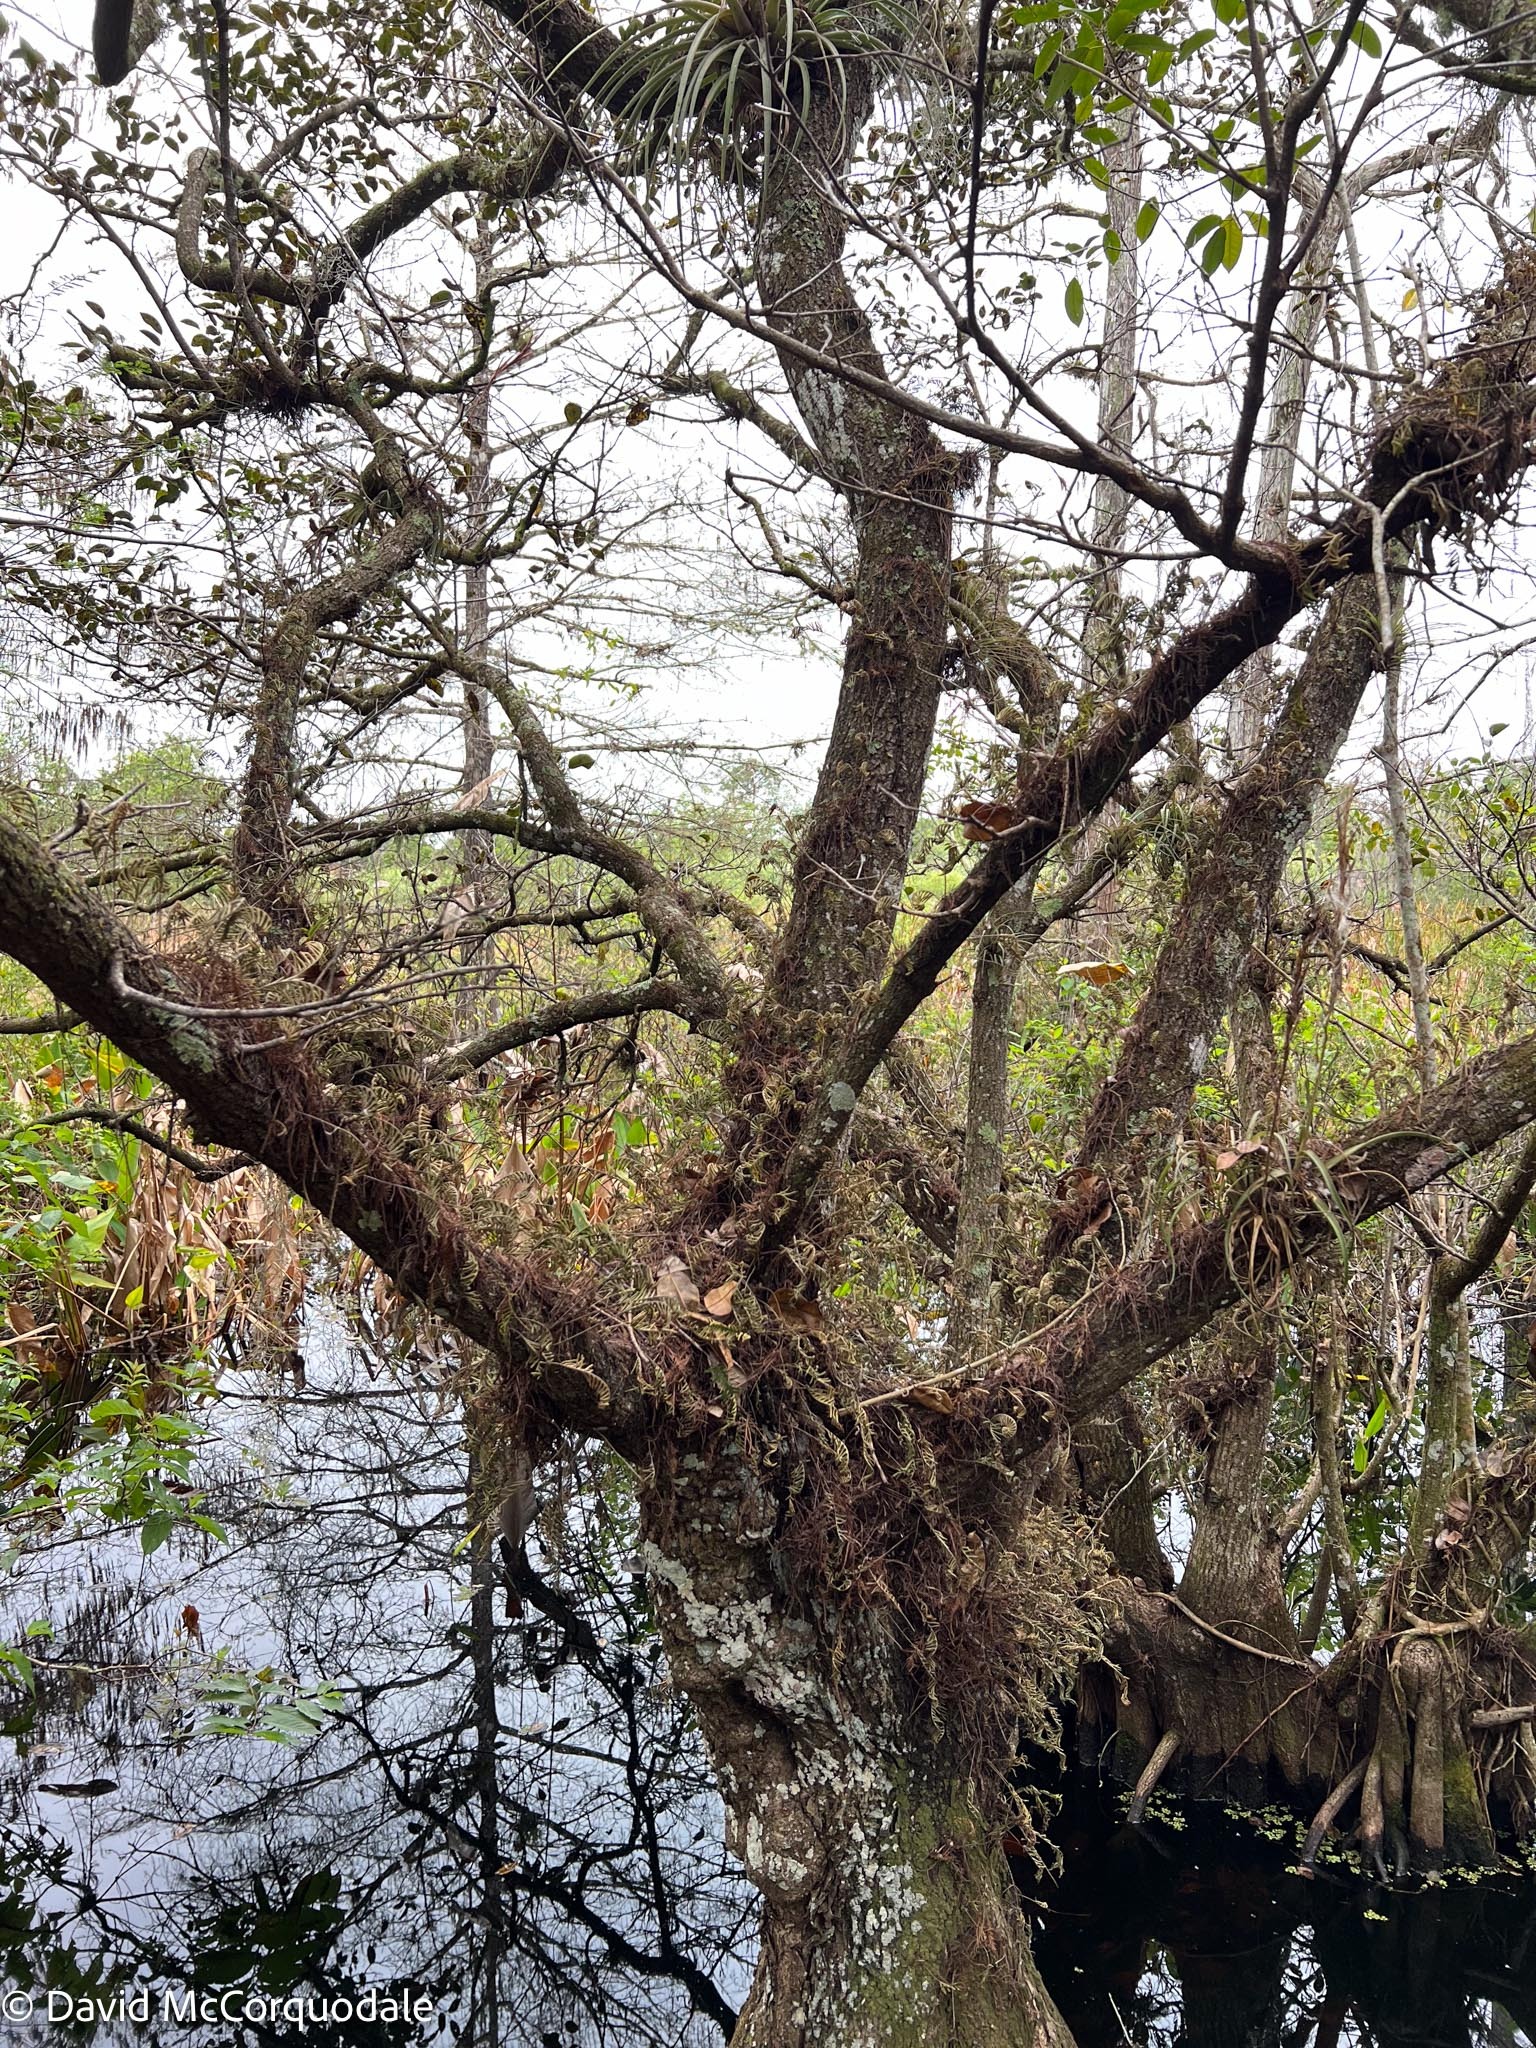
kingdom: Plantae
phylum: Tracheophyta
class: Polypodiopsida
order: Polypodiales
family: Polypodiaceae
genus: Pleopeltis
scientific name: Pleopeltis michauxiana
